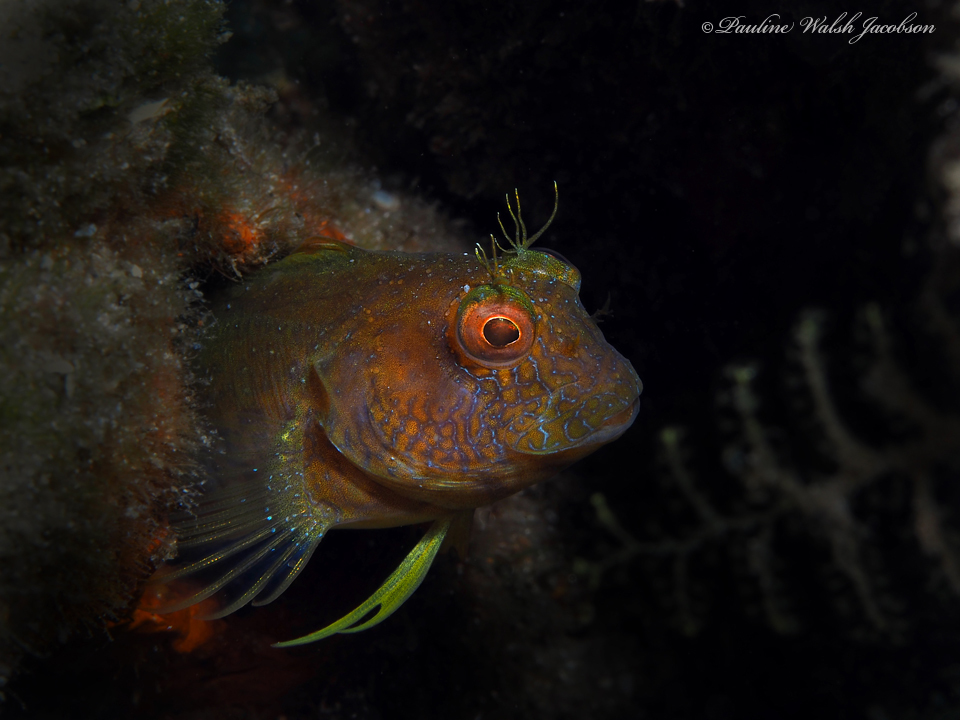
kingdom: Animalia
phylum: Chordata
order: Perciformes
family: Blenniidae
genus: Parablennius
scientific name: Parablennius marmoreus
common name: Seaweed blenny
